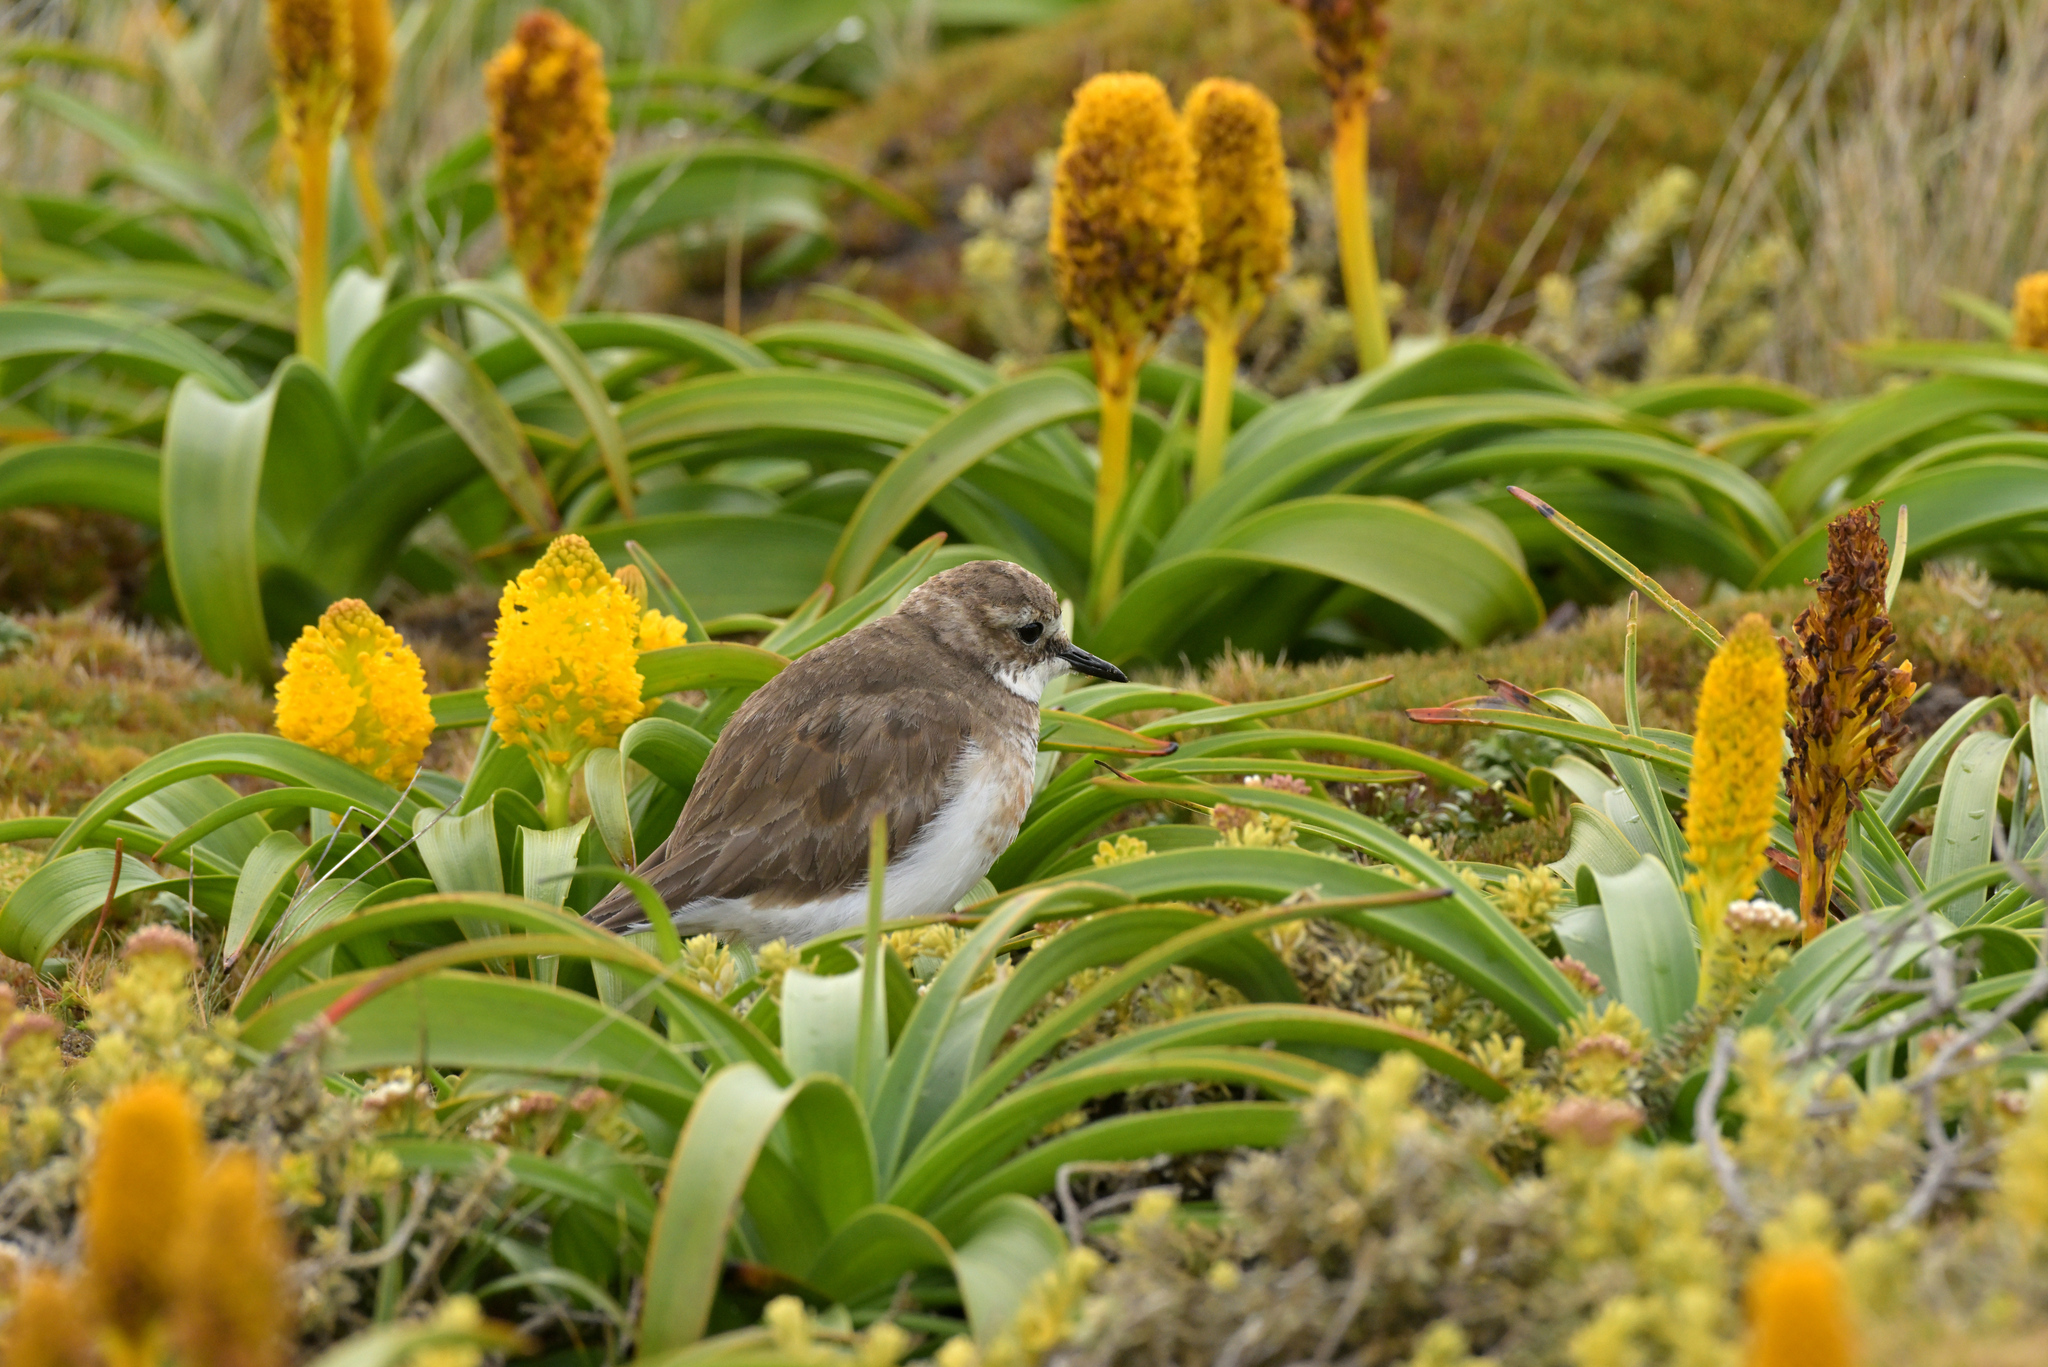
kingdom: Animalia
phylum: Chordata
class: Aves
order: Charadriiformes
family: Charadriidae
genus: Anarhynchus
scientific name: Anarhynchus
